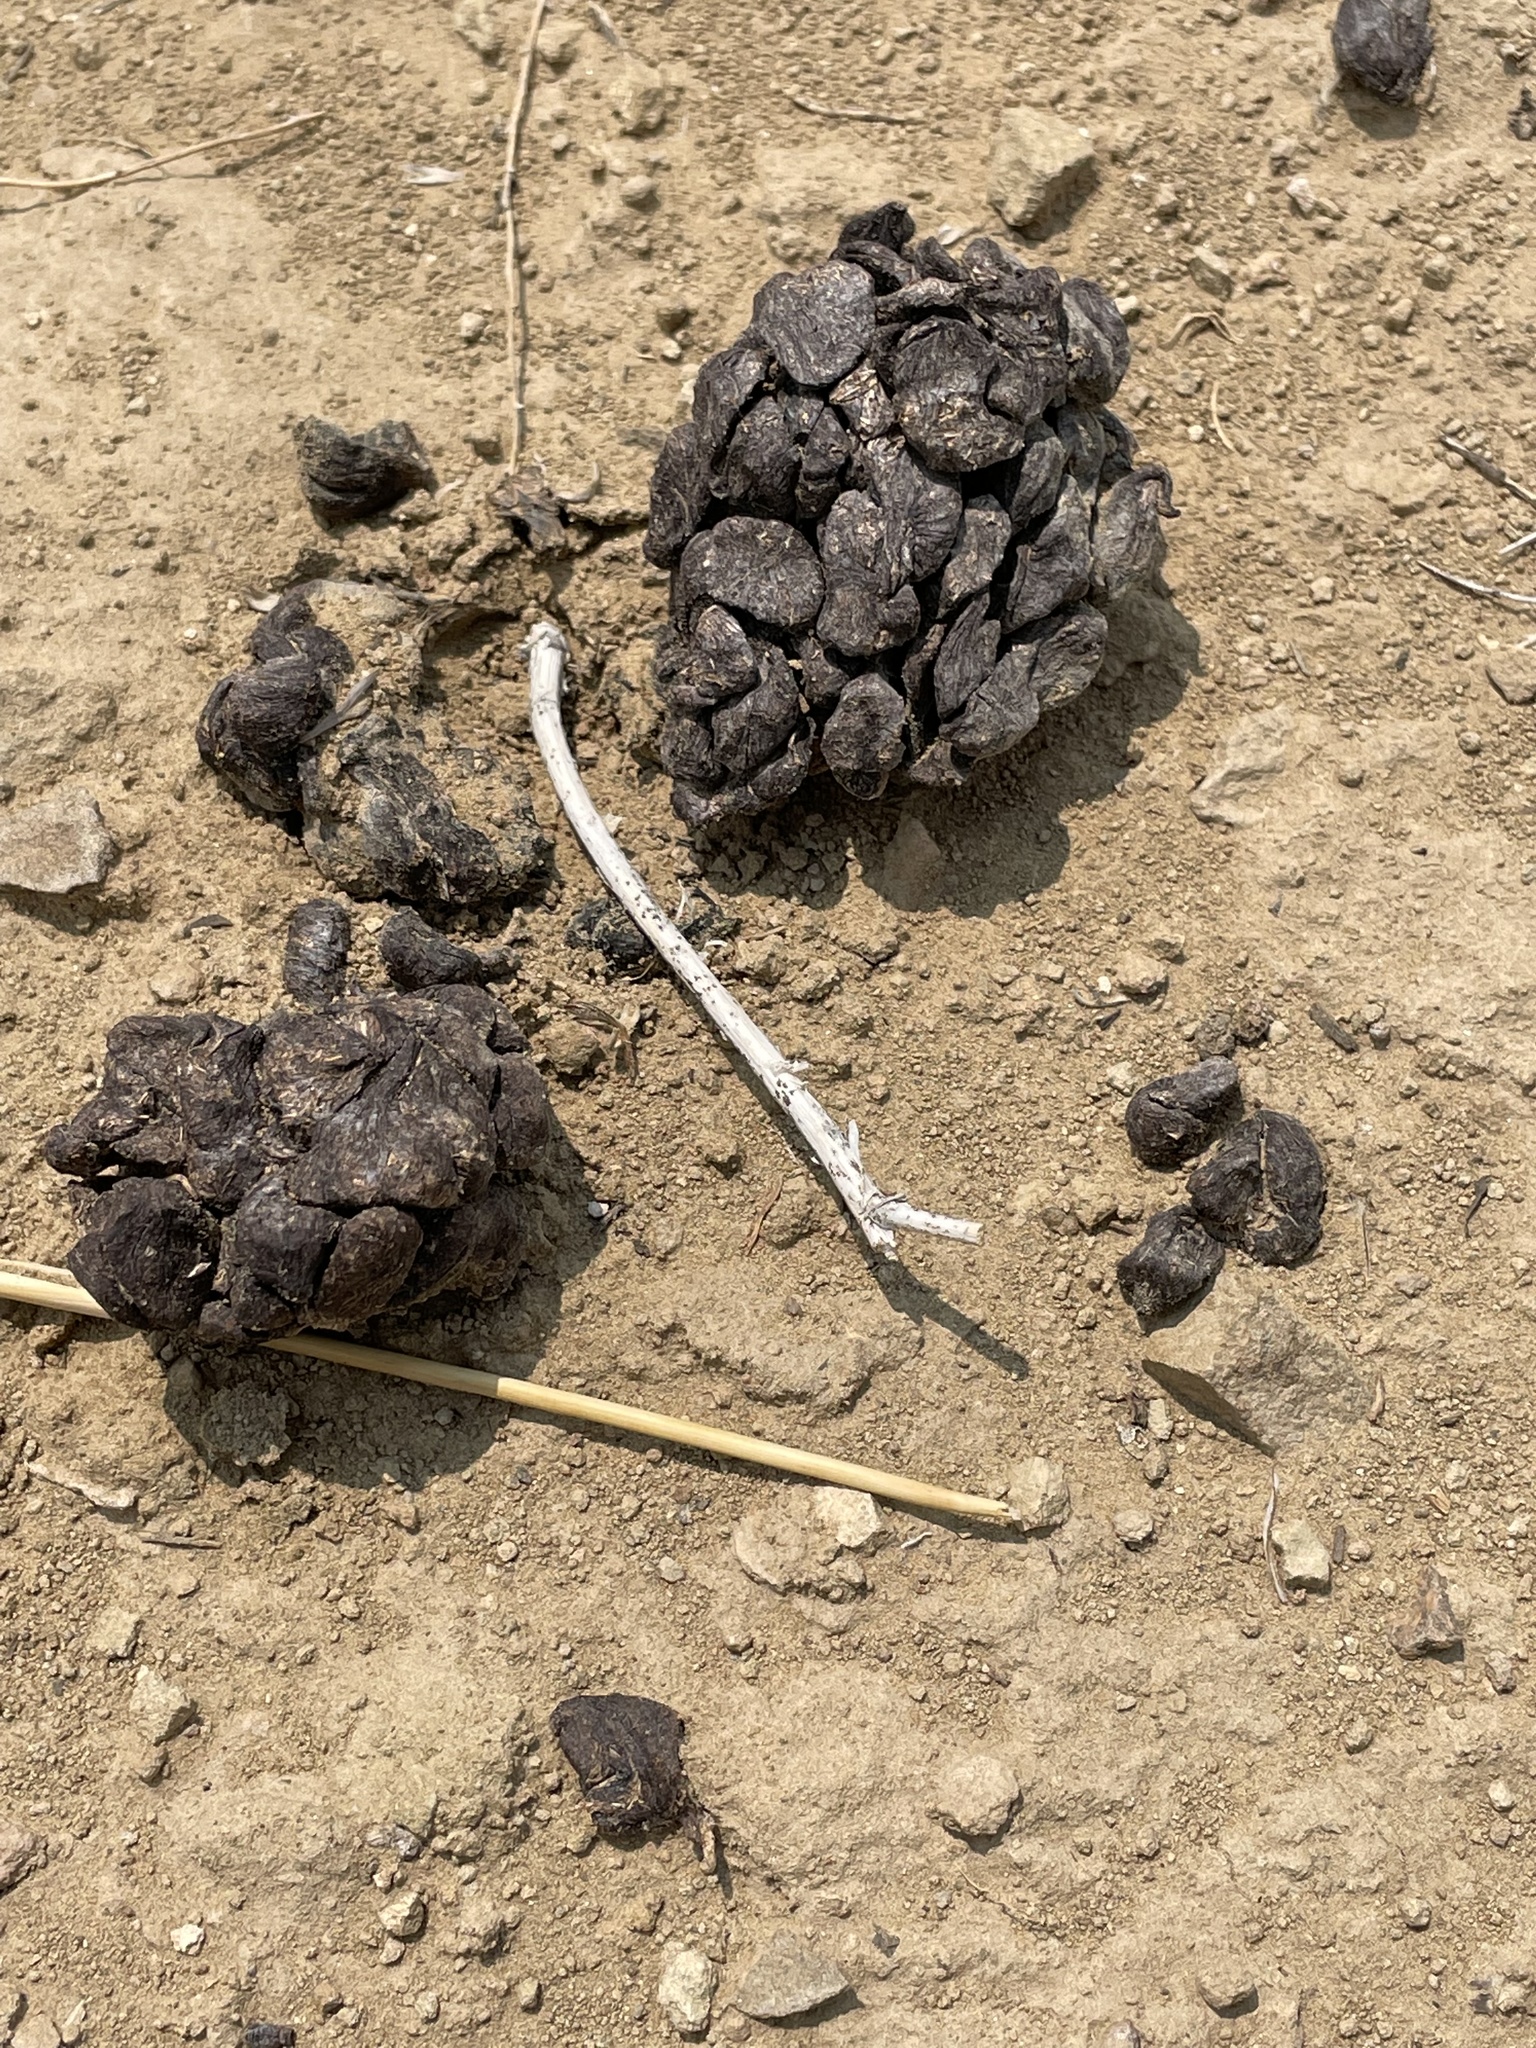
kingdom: Animalia
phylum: Chordata
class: Mammalia
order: Artiodactyla
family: Antilocapridae
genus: Antilocapra
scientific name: Antilocapra americana
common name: Pronghorn
